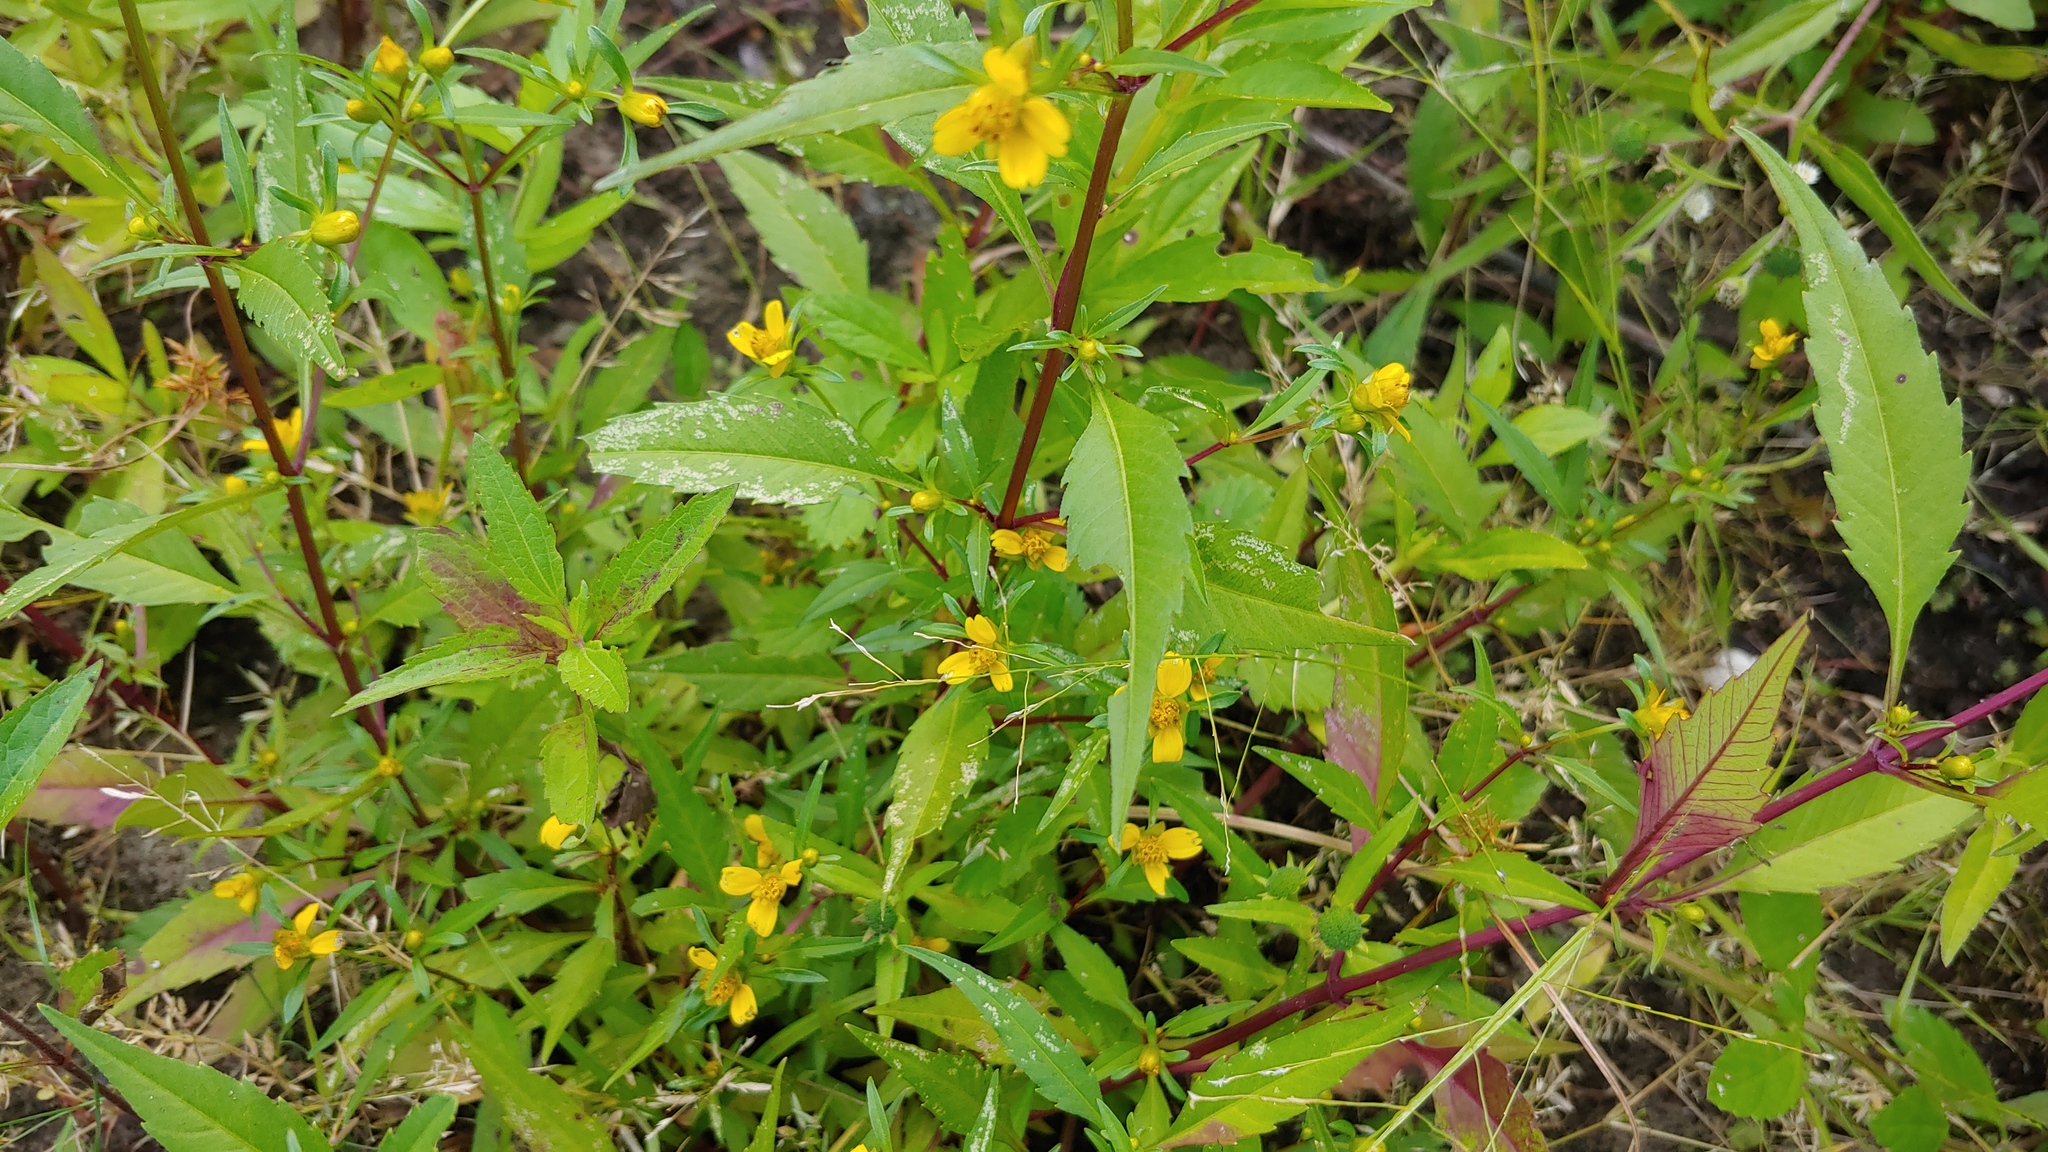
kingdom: Plantae
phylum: Tracheophyta
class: Magnoliopsida
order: Asterales
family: Asteraceae
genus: Bidens
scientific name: Bidens tripartita
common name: Trifid bur-marigold
